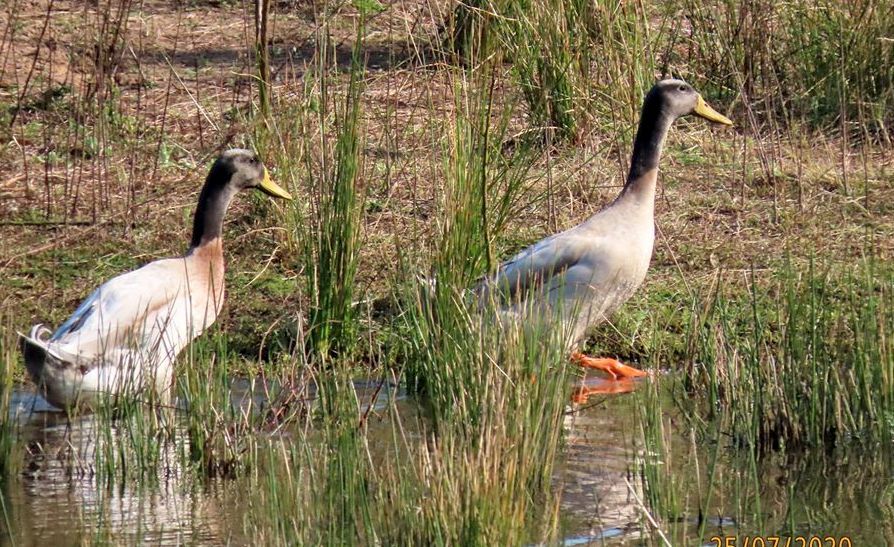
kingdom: Animalia
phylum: Chordata
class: Aves
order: Anseriformes
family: Anatidae
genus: Anas
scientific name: Anas platyrhynchos
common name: Mallard
